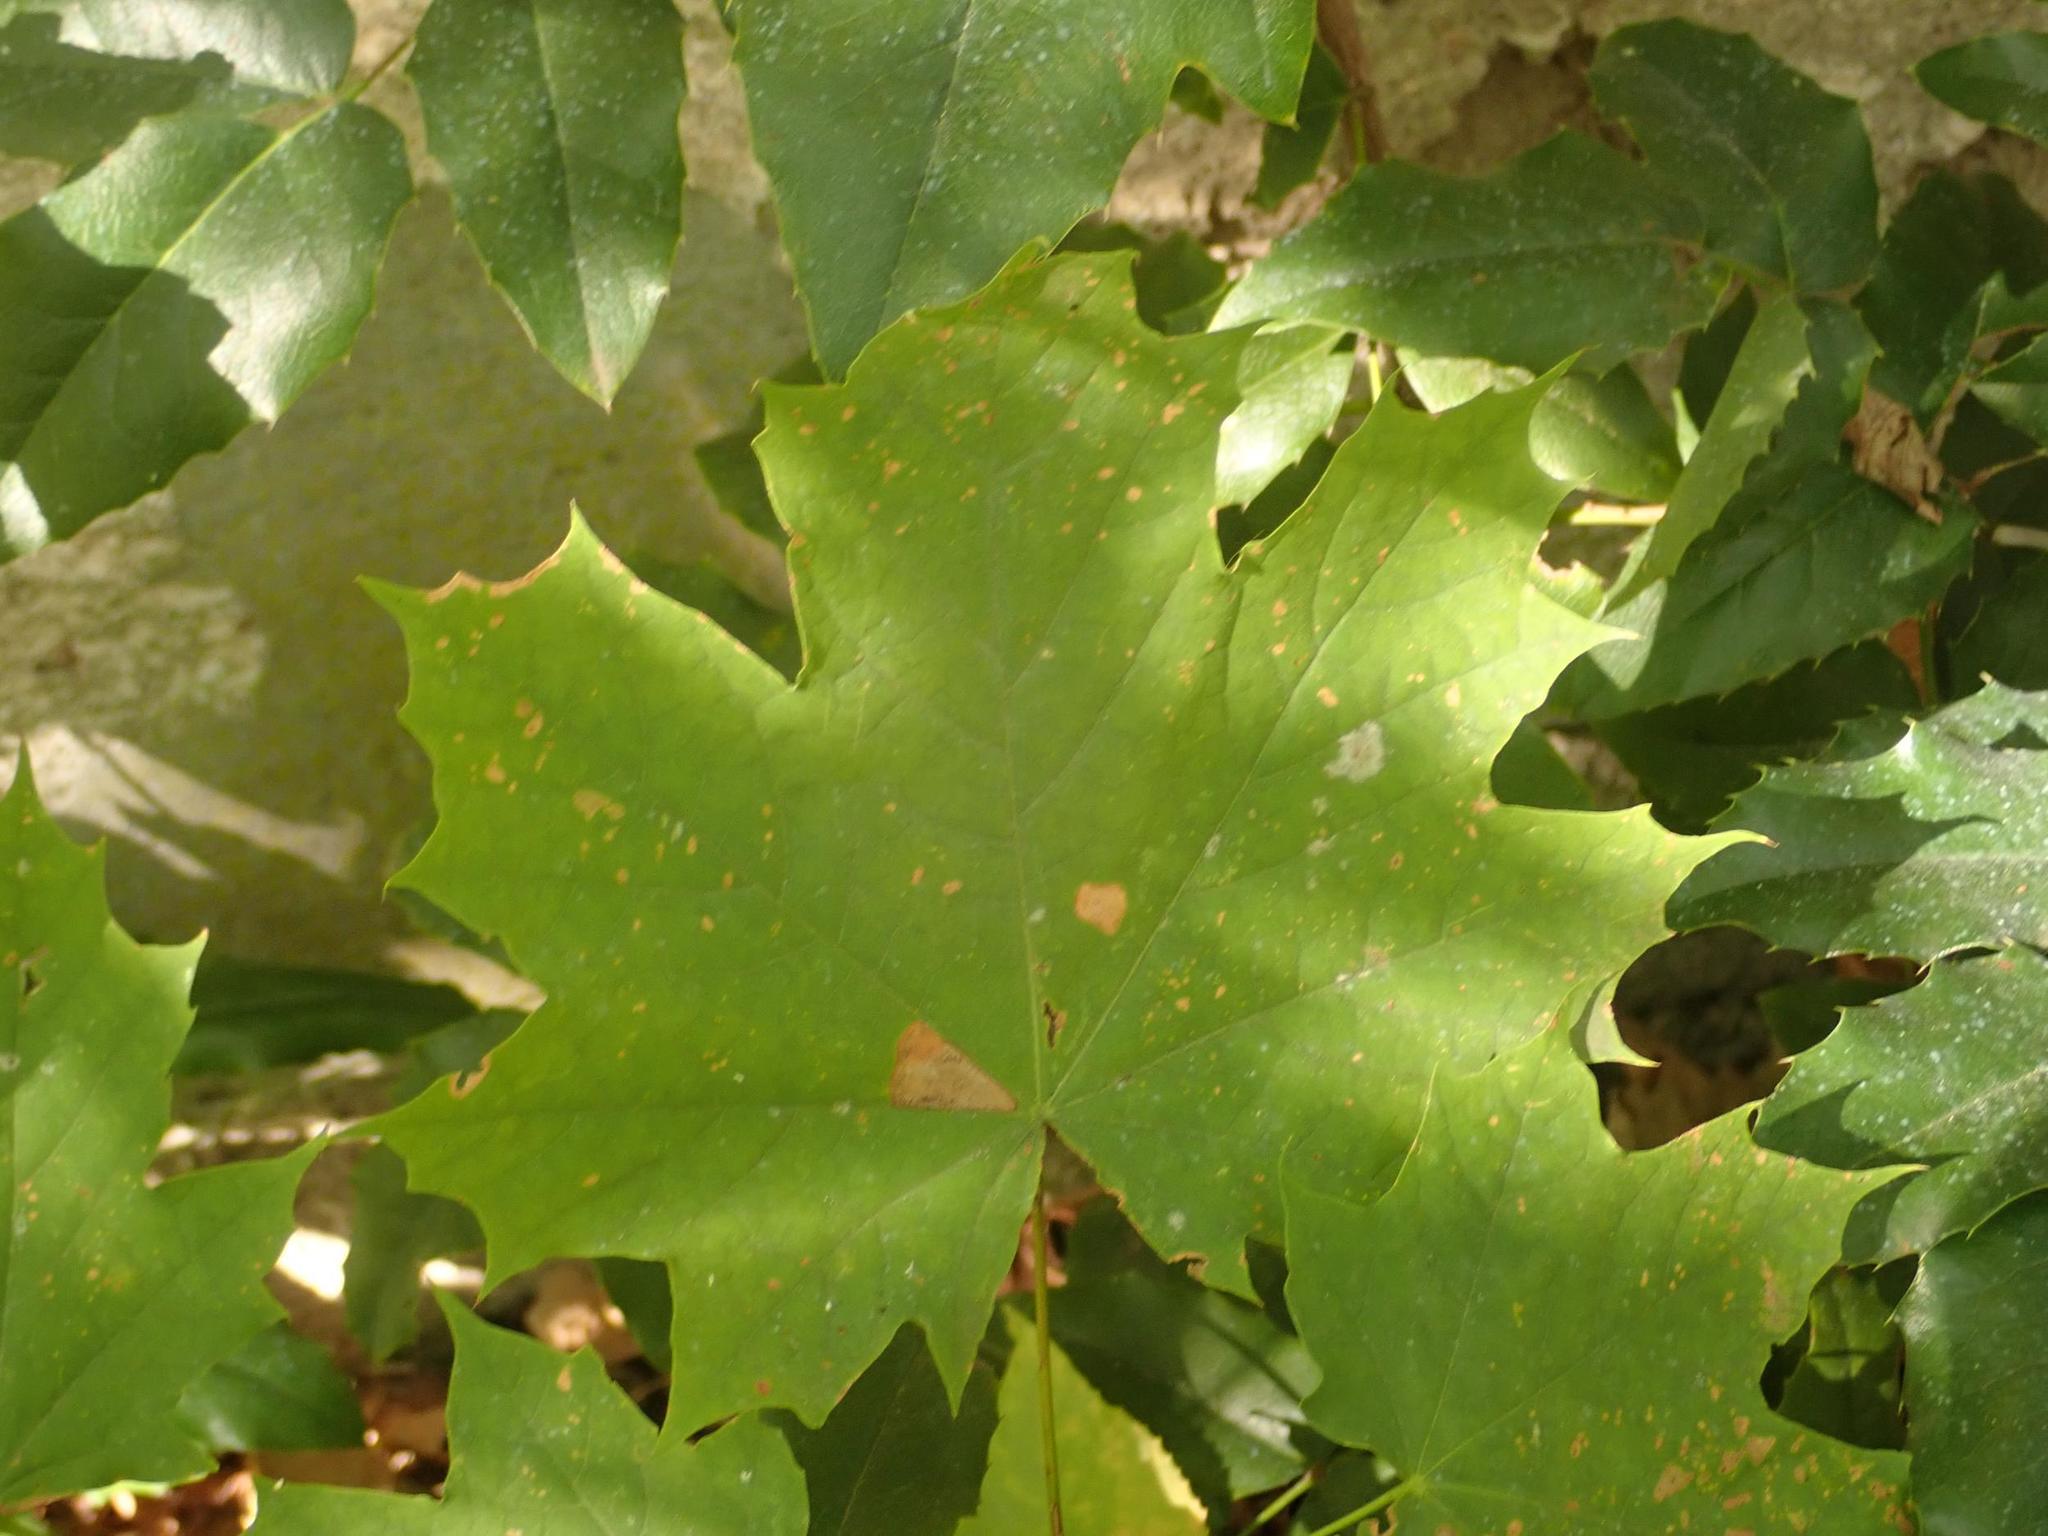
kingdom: Plantae
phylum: Tracheophyta
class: Magnoliopsida
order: Sapindales
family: Sapindaceae
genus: Acer
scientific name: Acer platanoides
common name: Norway maple
